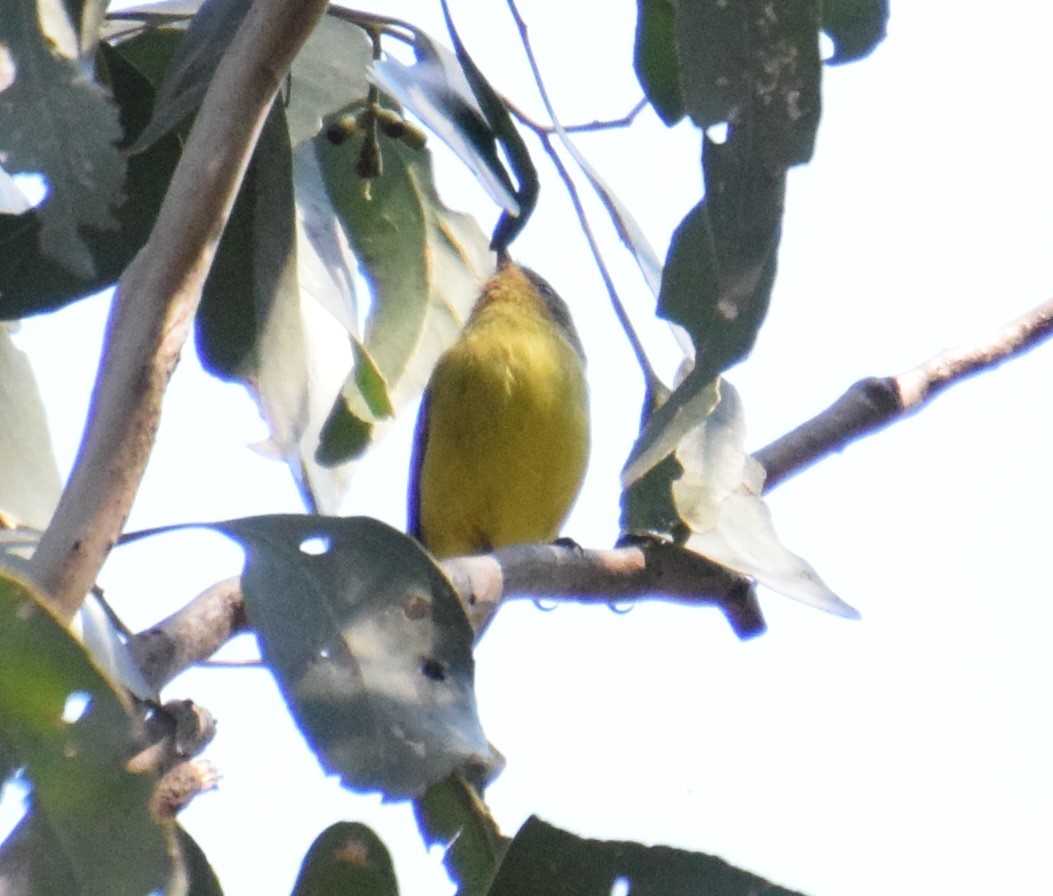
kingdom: Animalia
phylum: Chordata
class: Aves
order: Passeriformes
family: Acanthizidae
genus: Acanthiza
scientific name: Acanthiza nana
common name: Yellow thornbill
